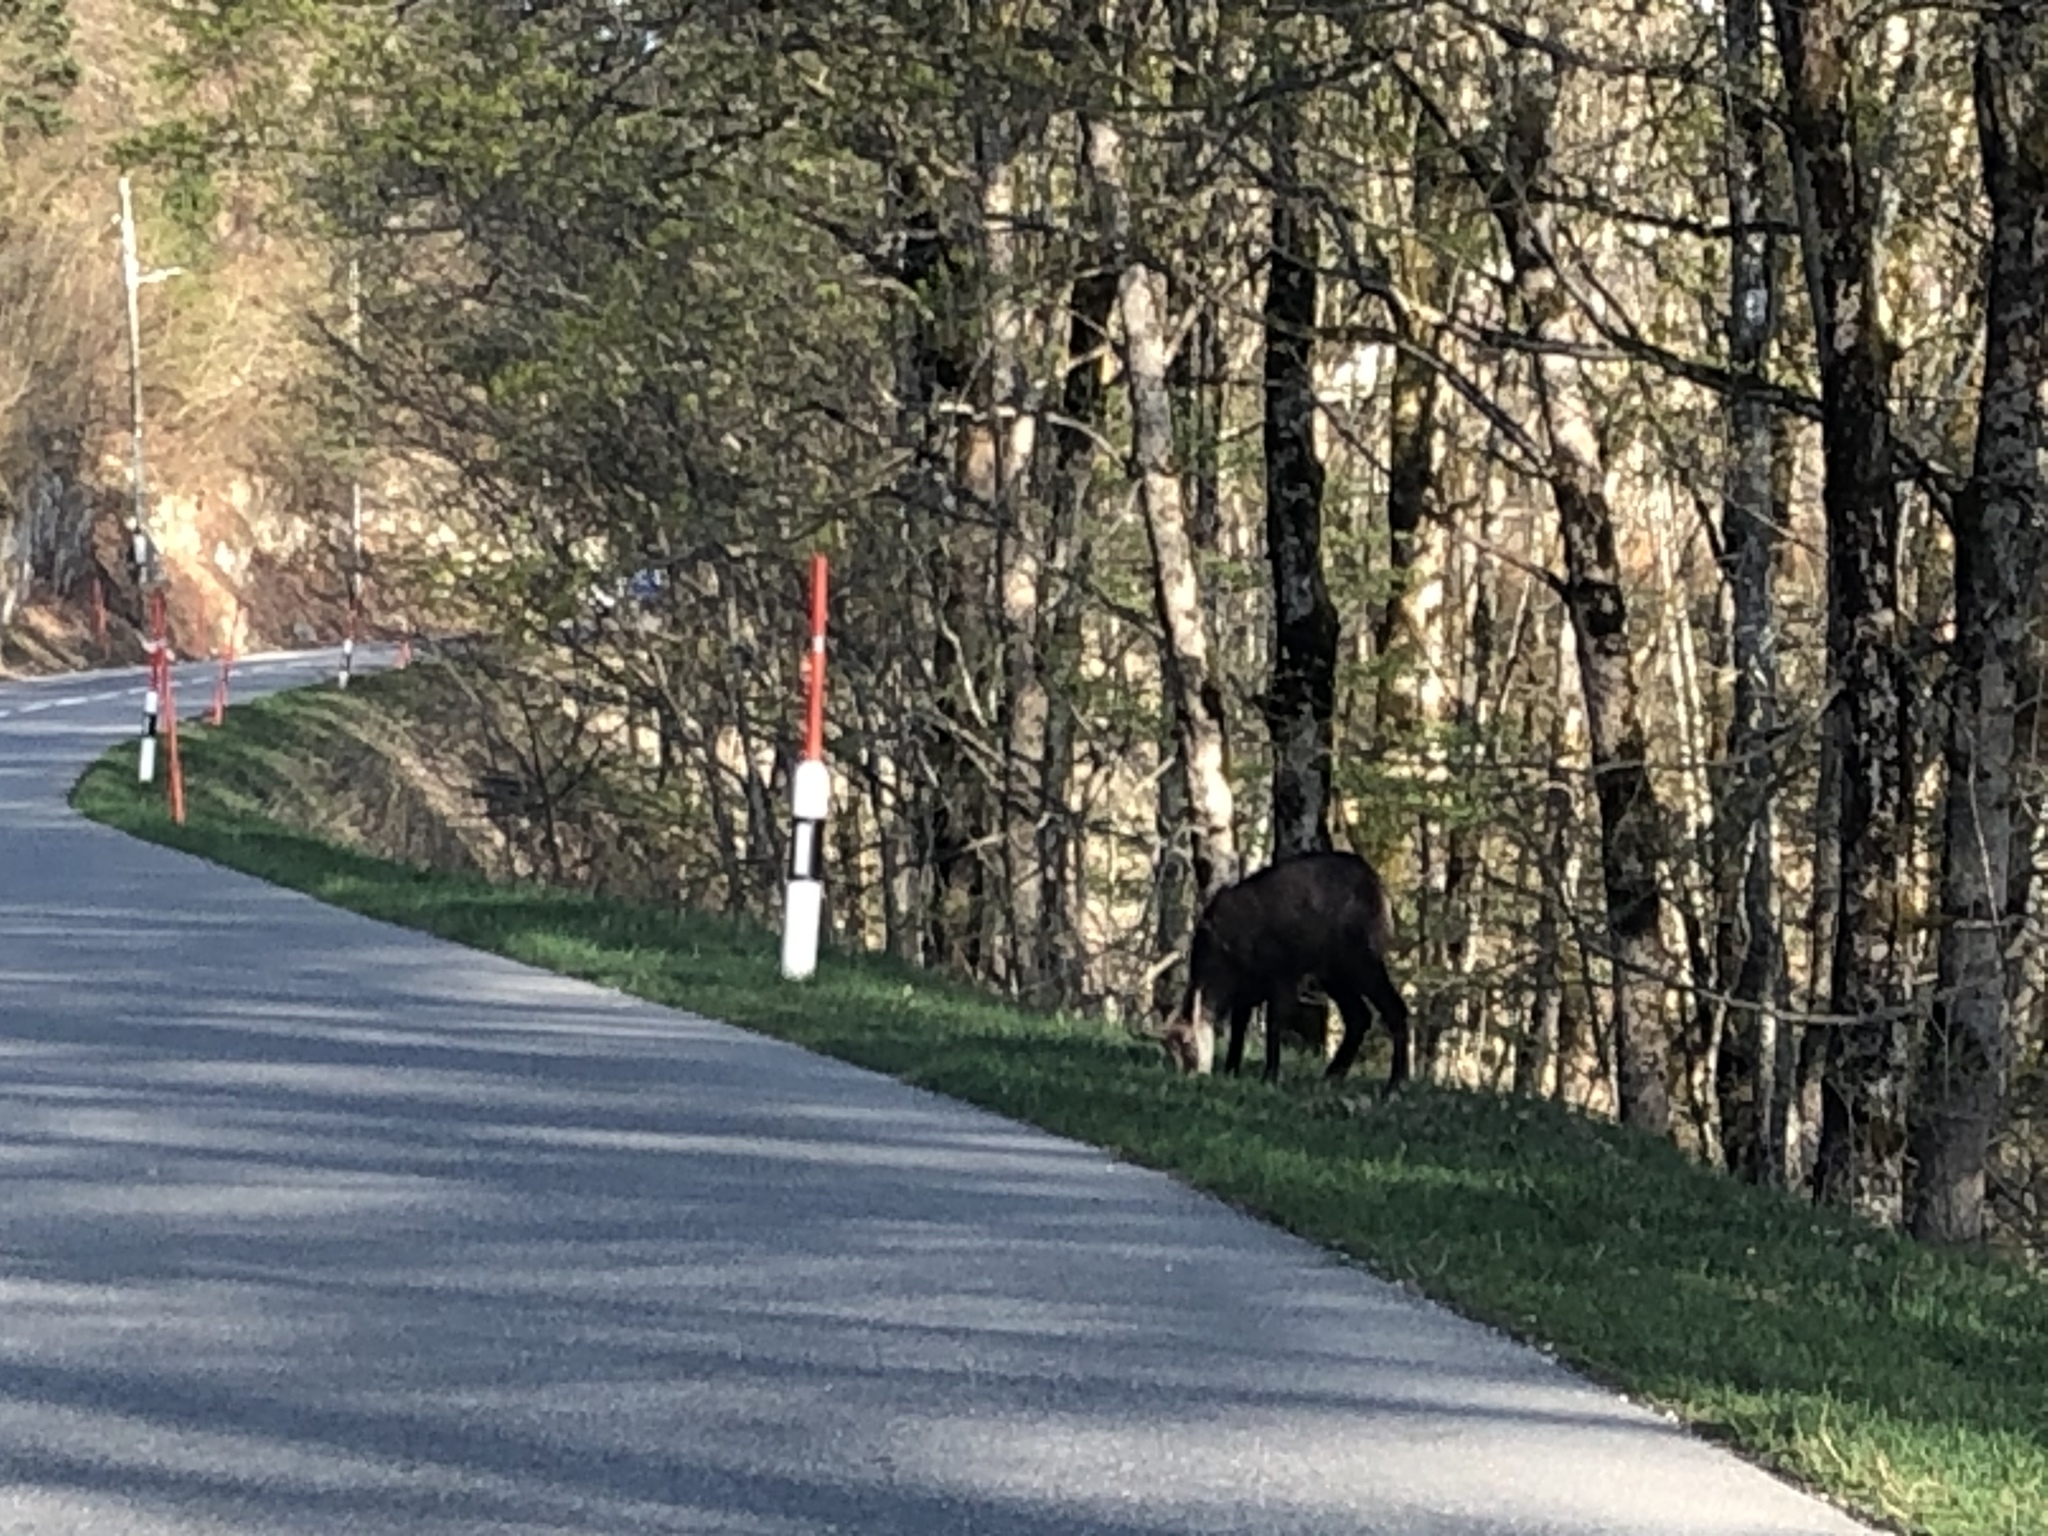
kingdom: Animalia
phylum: Chordata
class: Mammalia
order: Artiodactyla
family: Bovidae
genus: Rupicapra
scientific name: Rupicapra rupicapra
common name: Chamois
